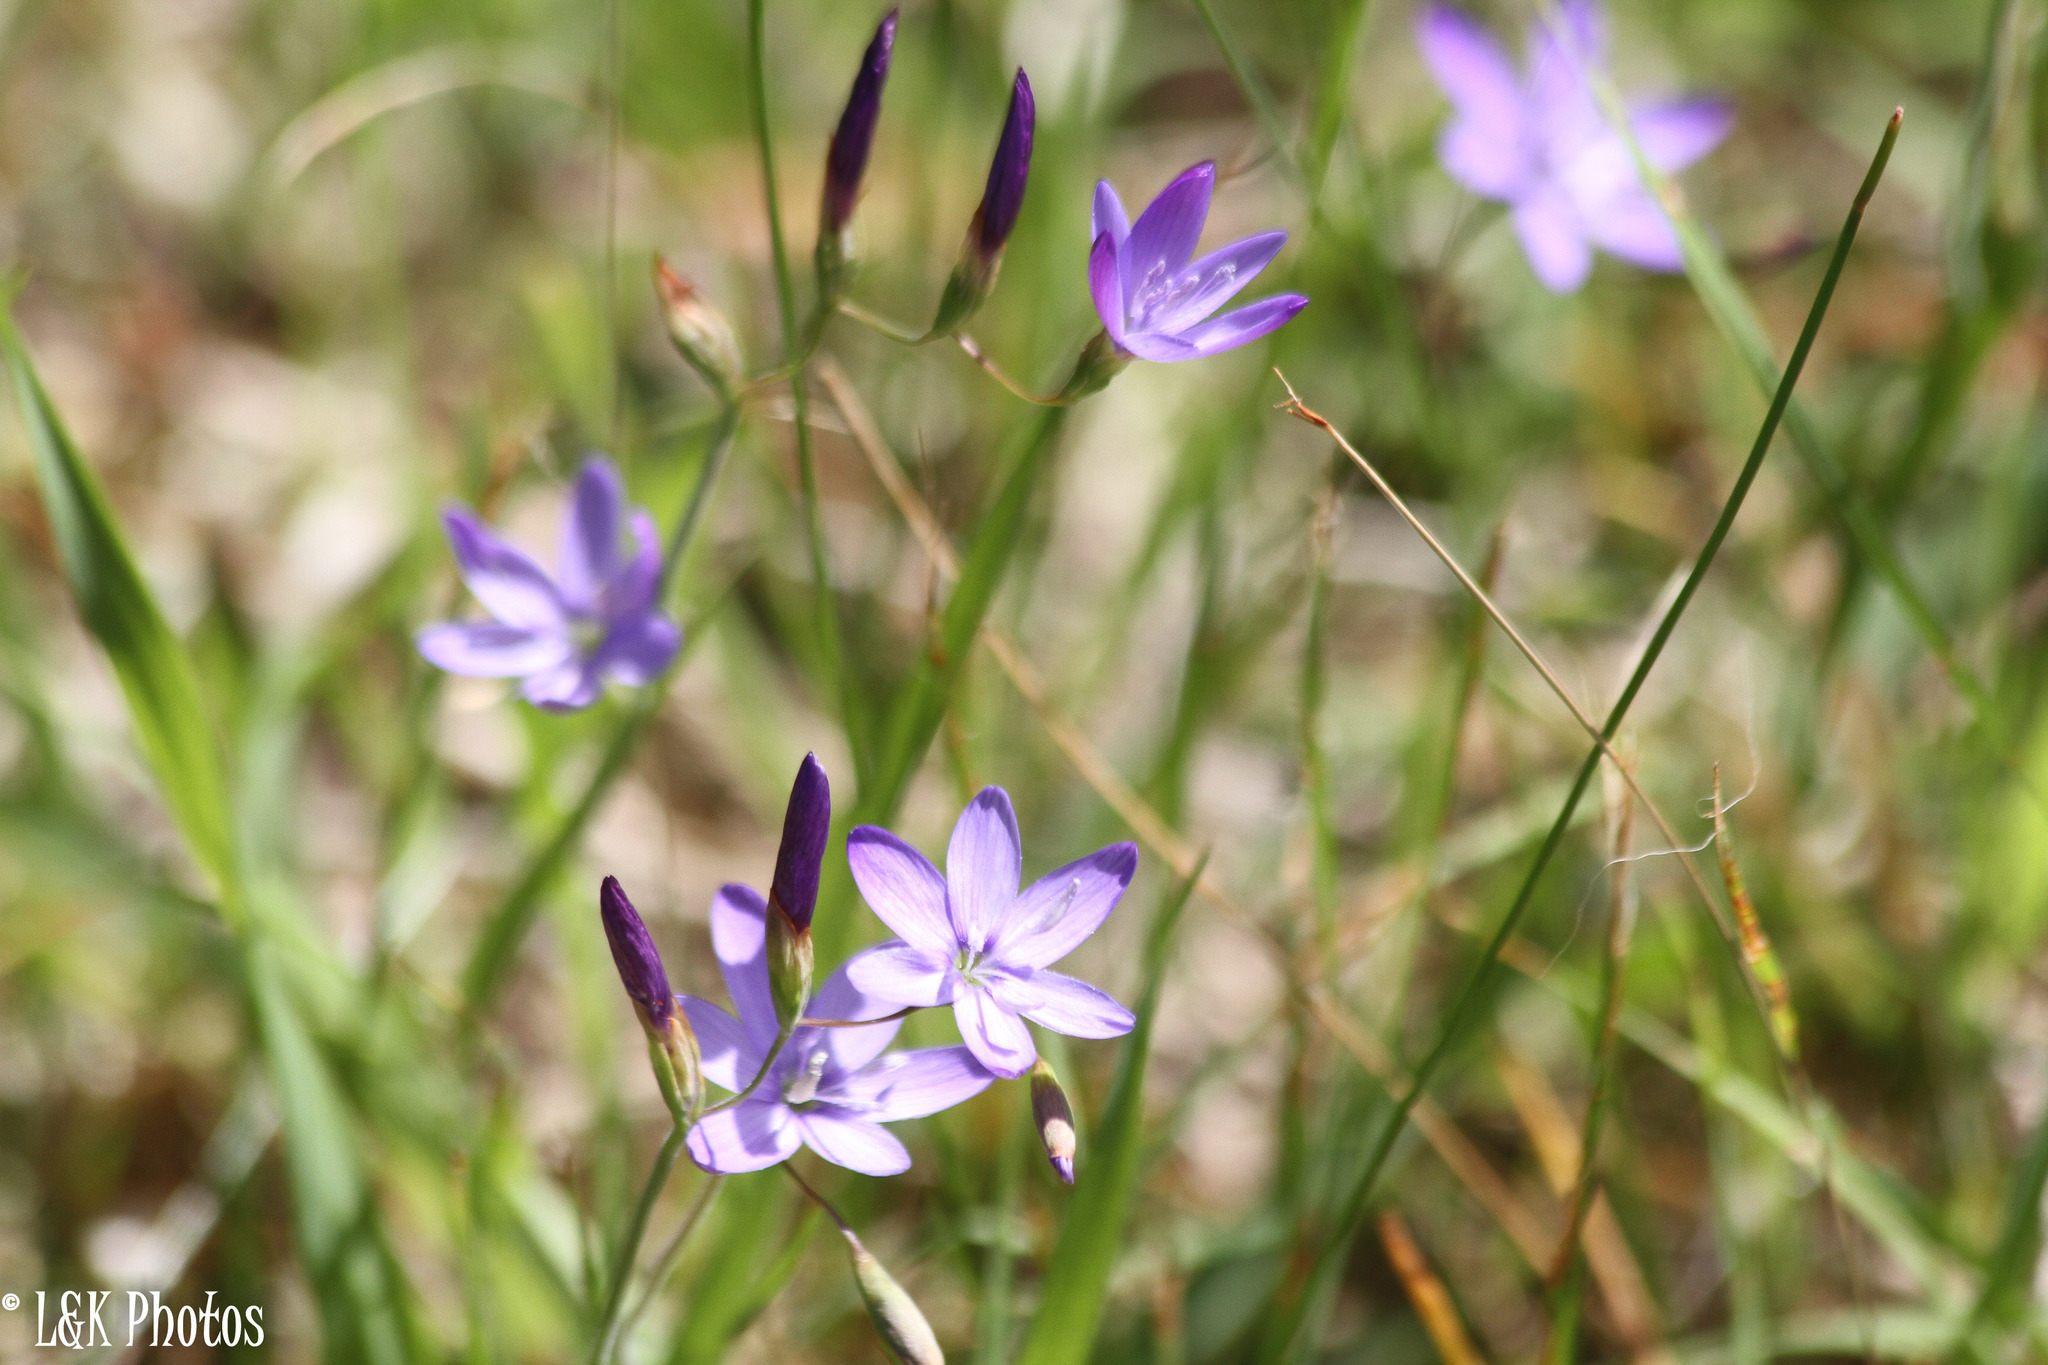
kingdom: Plantae
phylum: Tracheophyta
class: Liliopsida
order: Asparagales
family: Iridaceae
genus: Geissorhiza
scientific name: Geissorhiza aspera
